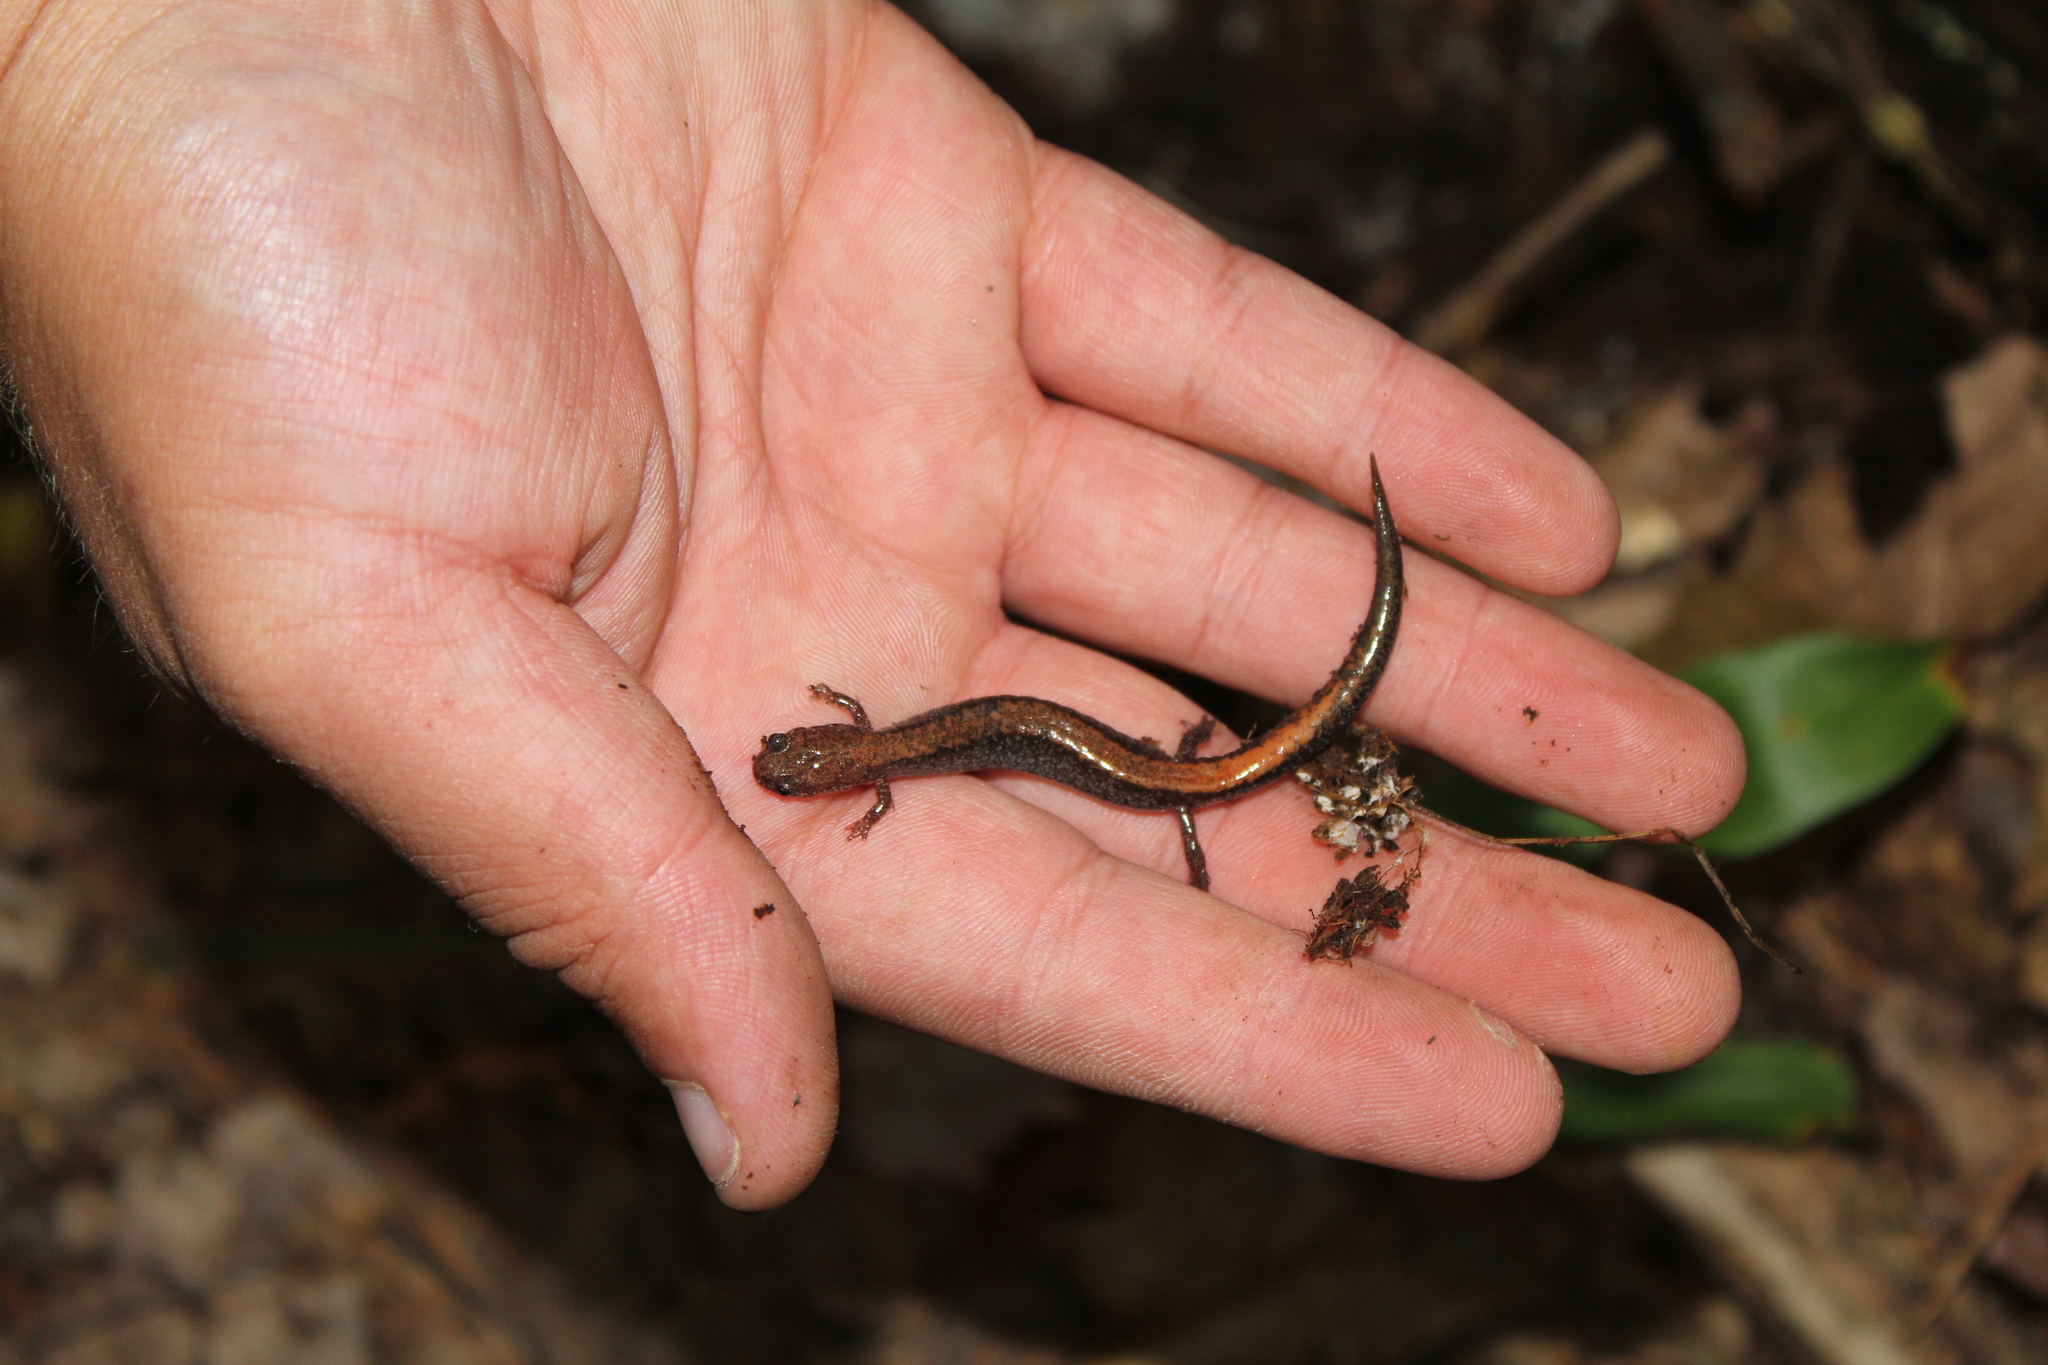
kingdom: Animalia
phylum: Chordata
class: Amphibia
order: Caudata
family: Plethodontidae
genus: Plethodon
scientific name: Plethodon cinereus
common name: Redback salamander
